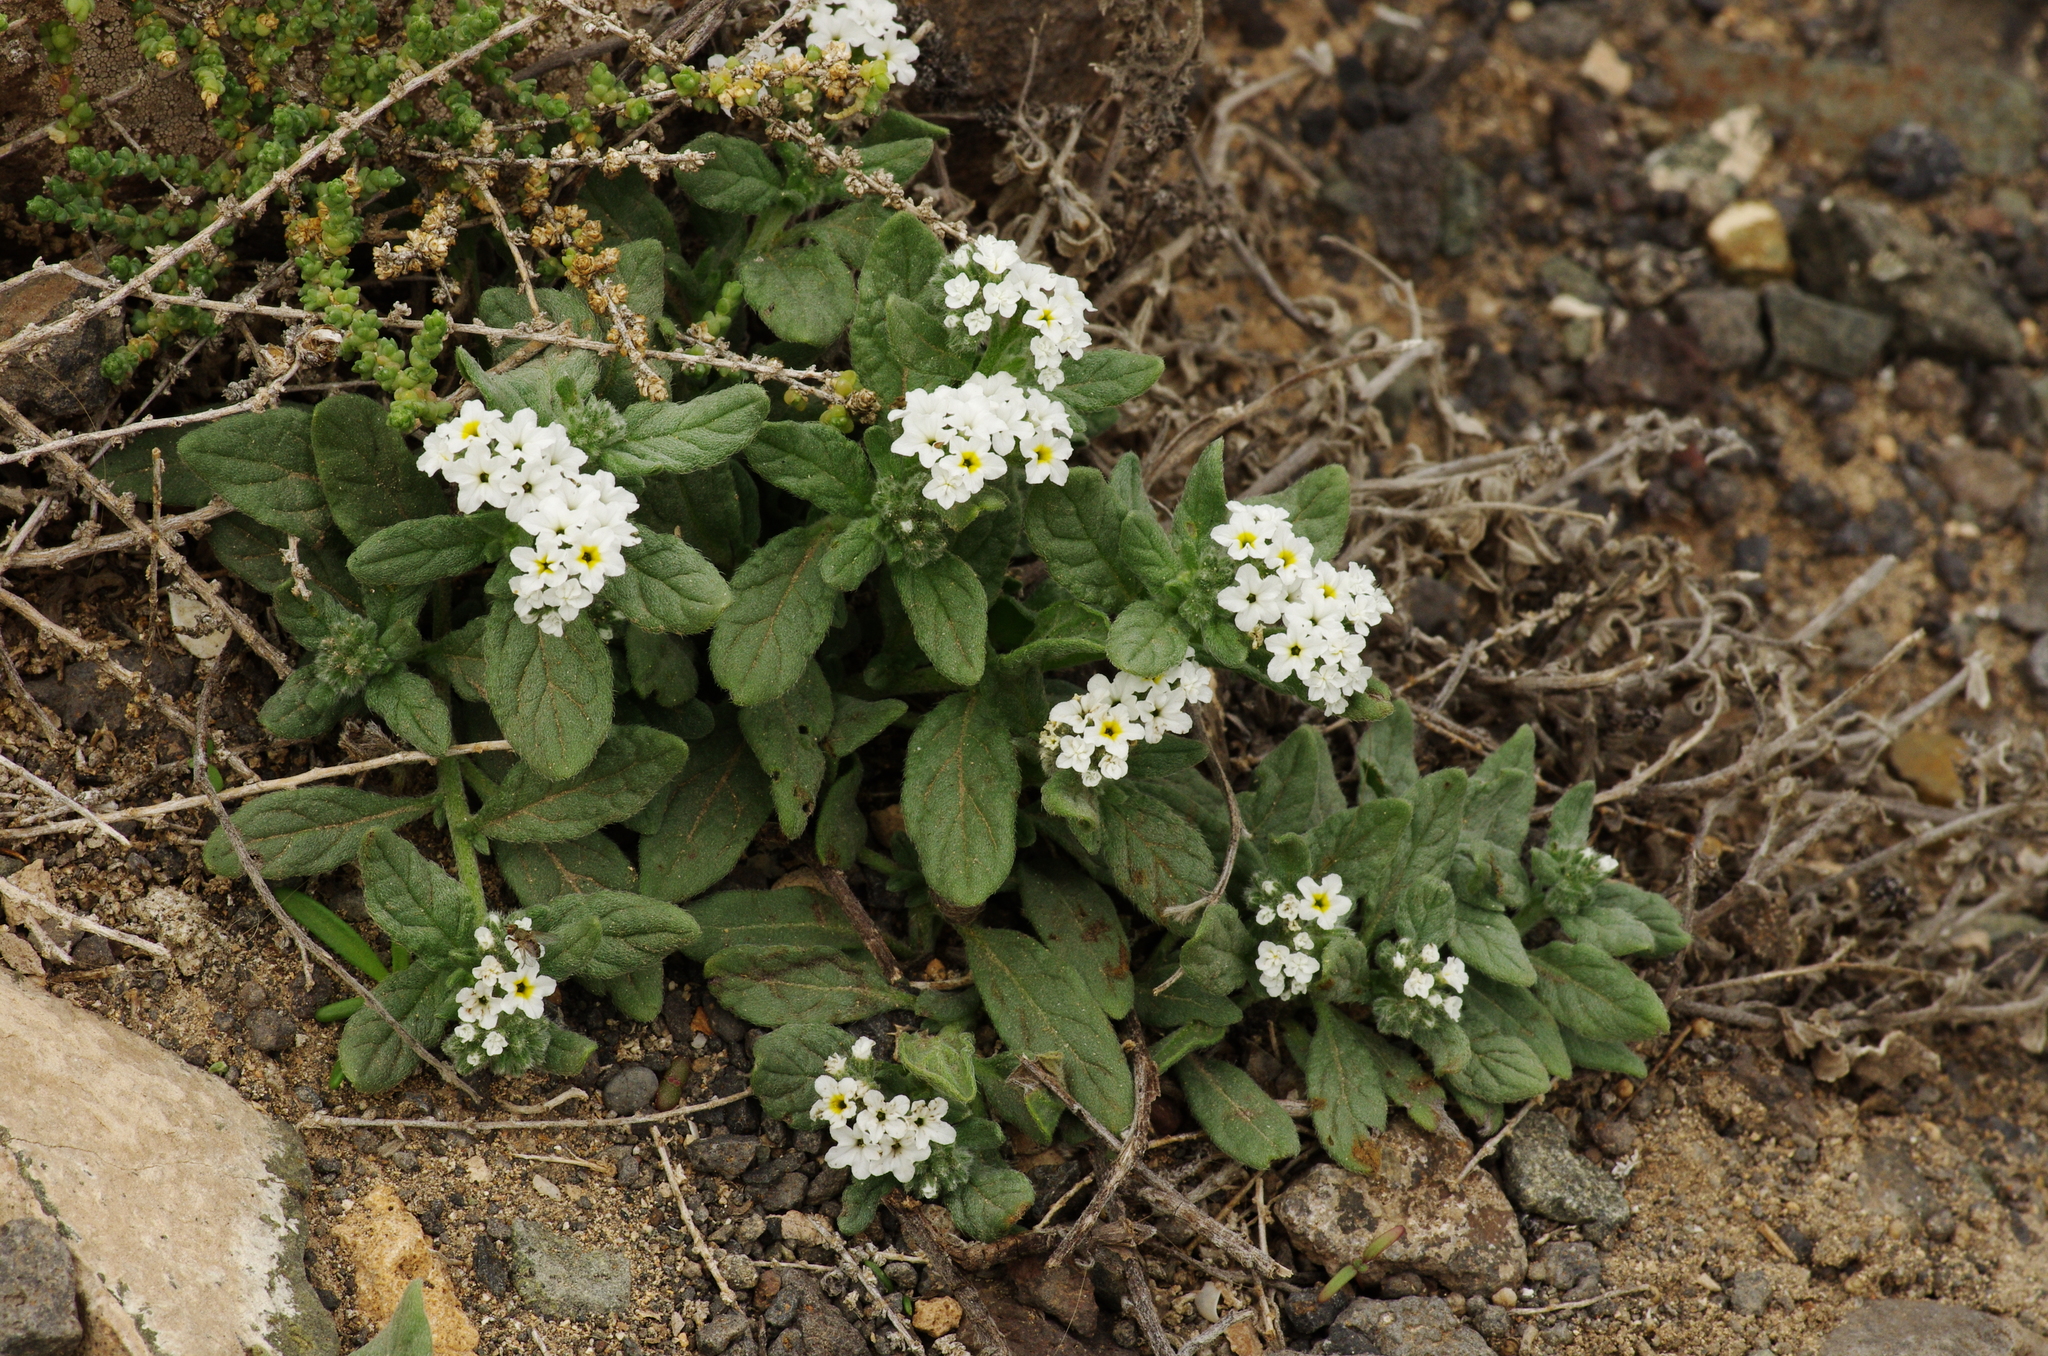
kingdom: Plantae
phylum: Tracheophyta
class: Magnoliopsida
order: Boraginales
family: Heliotropiaceae
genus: Heliotropium
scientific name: Heliotropium ramosissimum
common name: Wavy heliotrope
